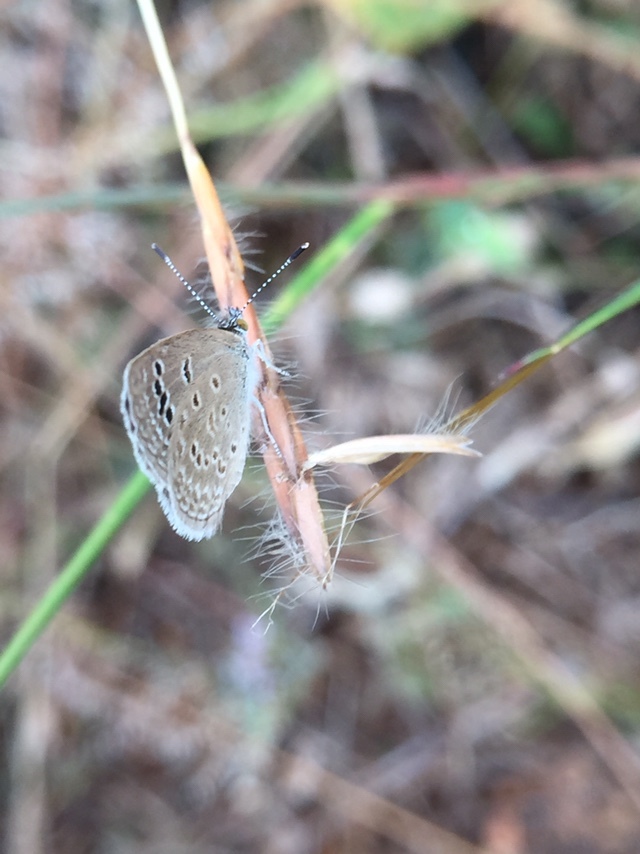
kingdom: Animalia
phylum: Arthropoda
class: Insecta
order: Lepidoptera
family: Lycaenidae
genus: Zizeeria
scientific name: Zizeeria karsandra
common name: Dark grass blue
